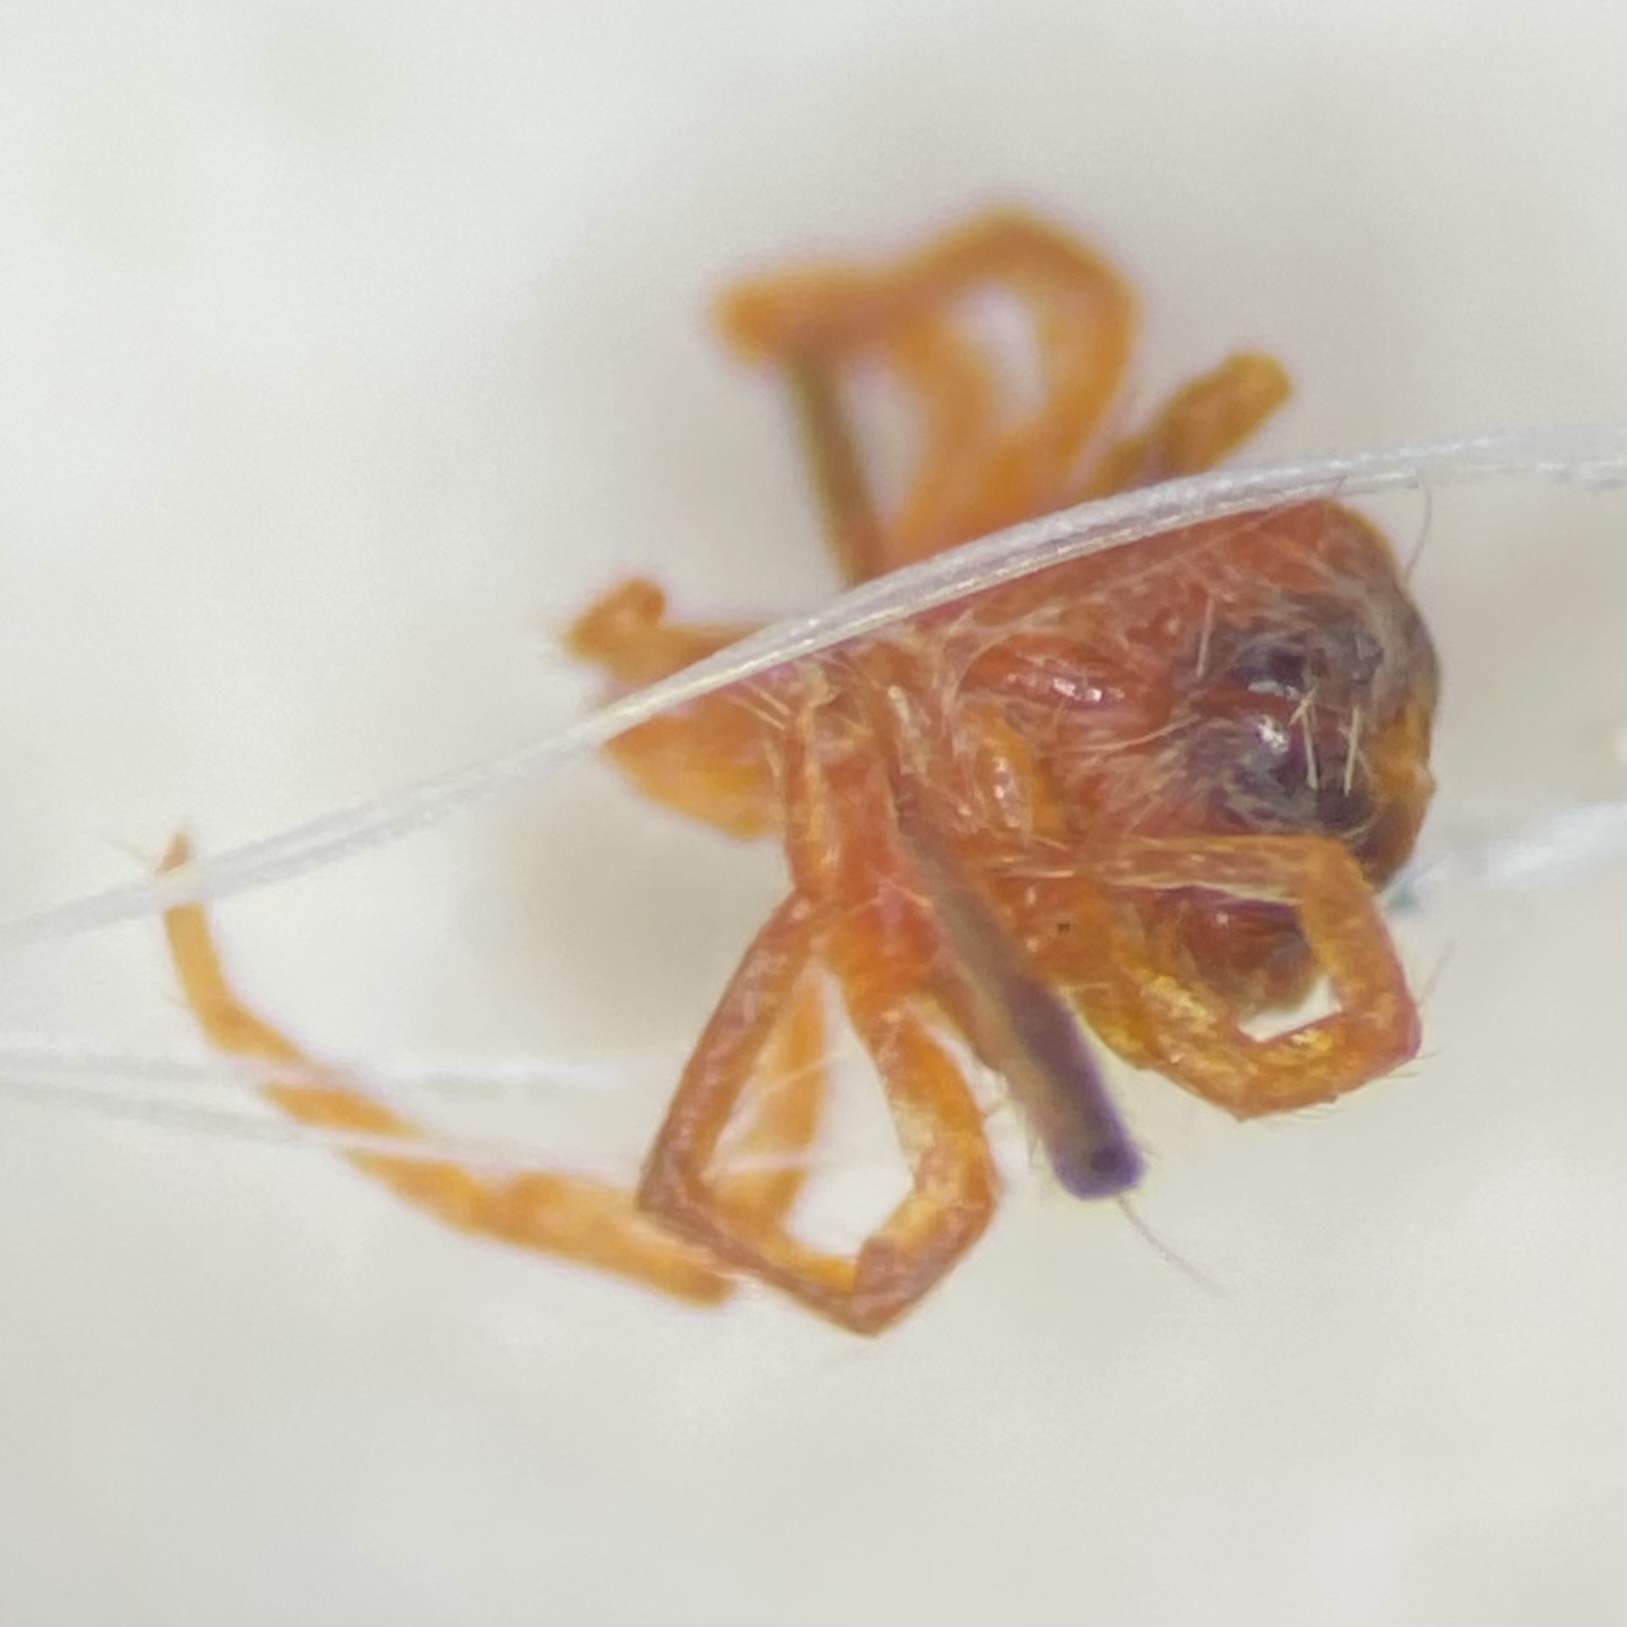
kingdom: Animalia
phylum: Arthropoda
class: Arachnida
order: Trombidiformes
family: Anystidae
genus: Anystis
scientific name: Anystis
